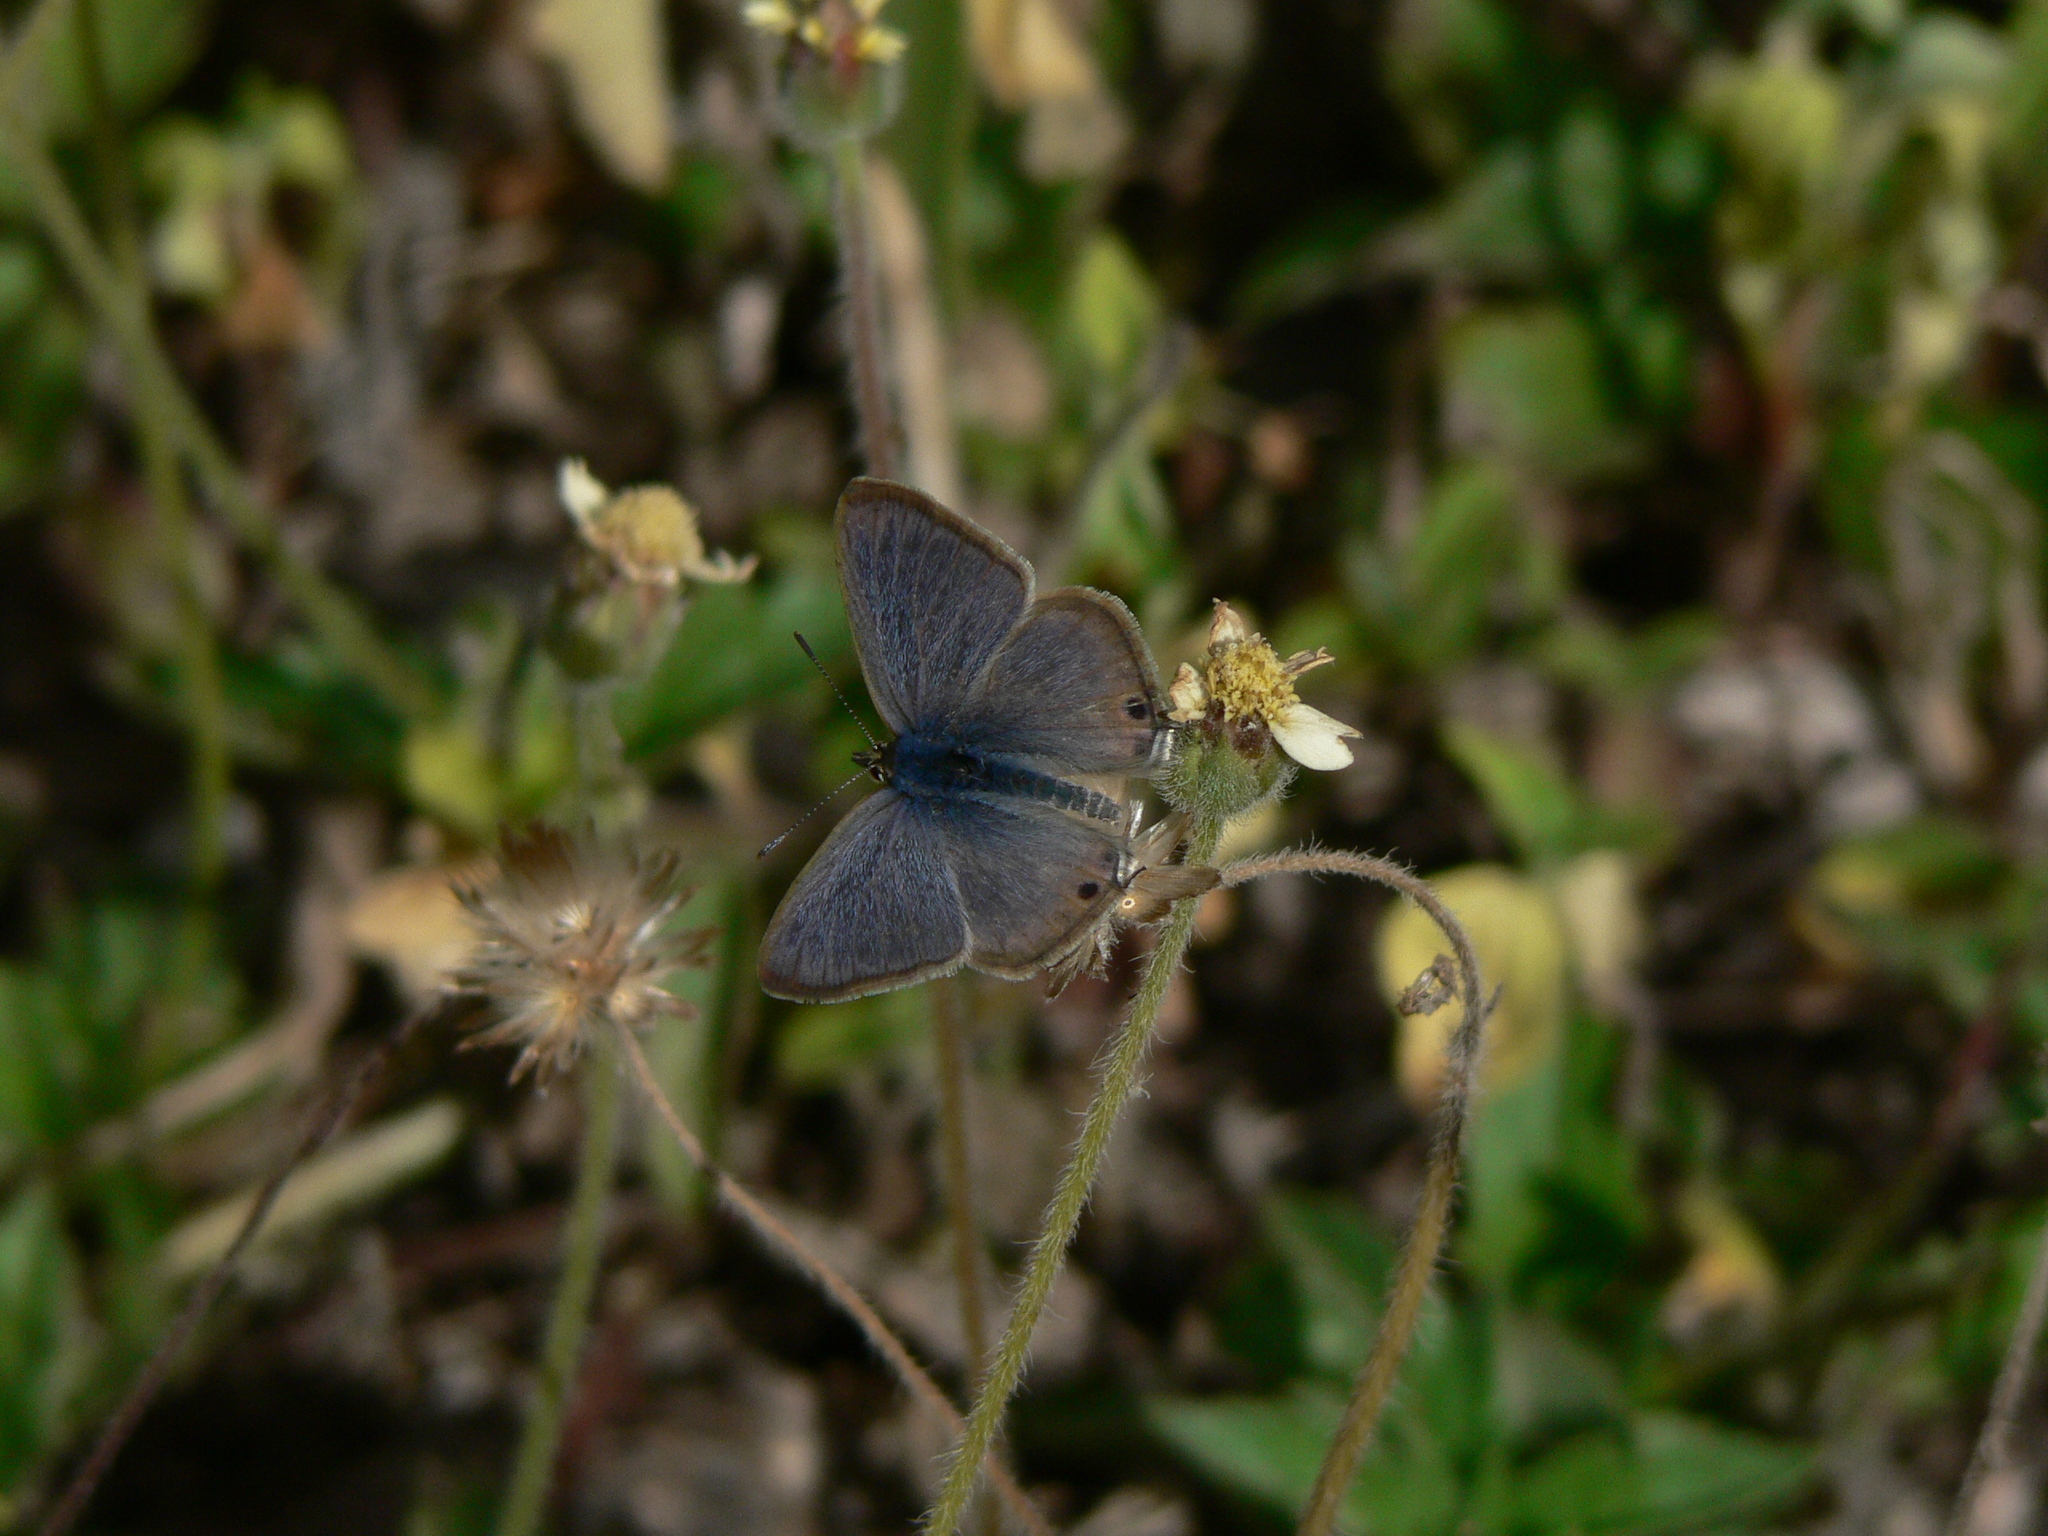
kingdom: Animalia
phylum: Arthropoda
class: Insecta
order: Lepidoptera
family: Lycaenidae
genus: Lampides
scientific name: Lampides boeticus
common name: Long-tailed blue
